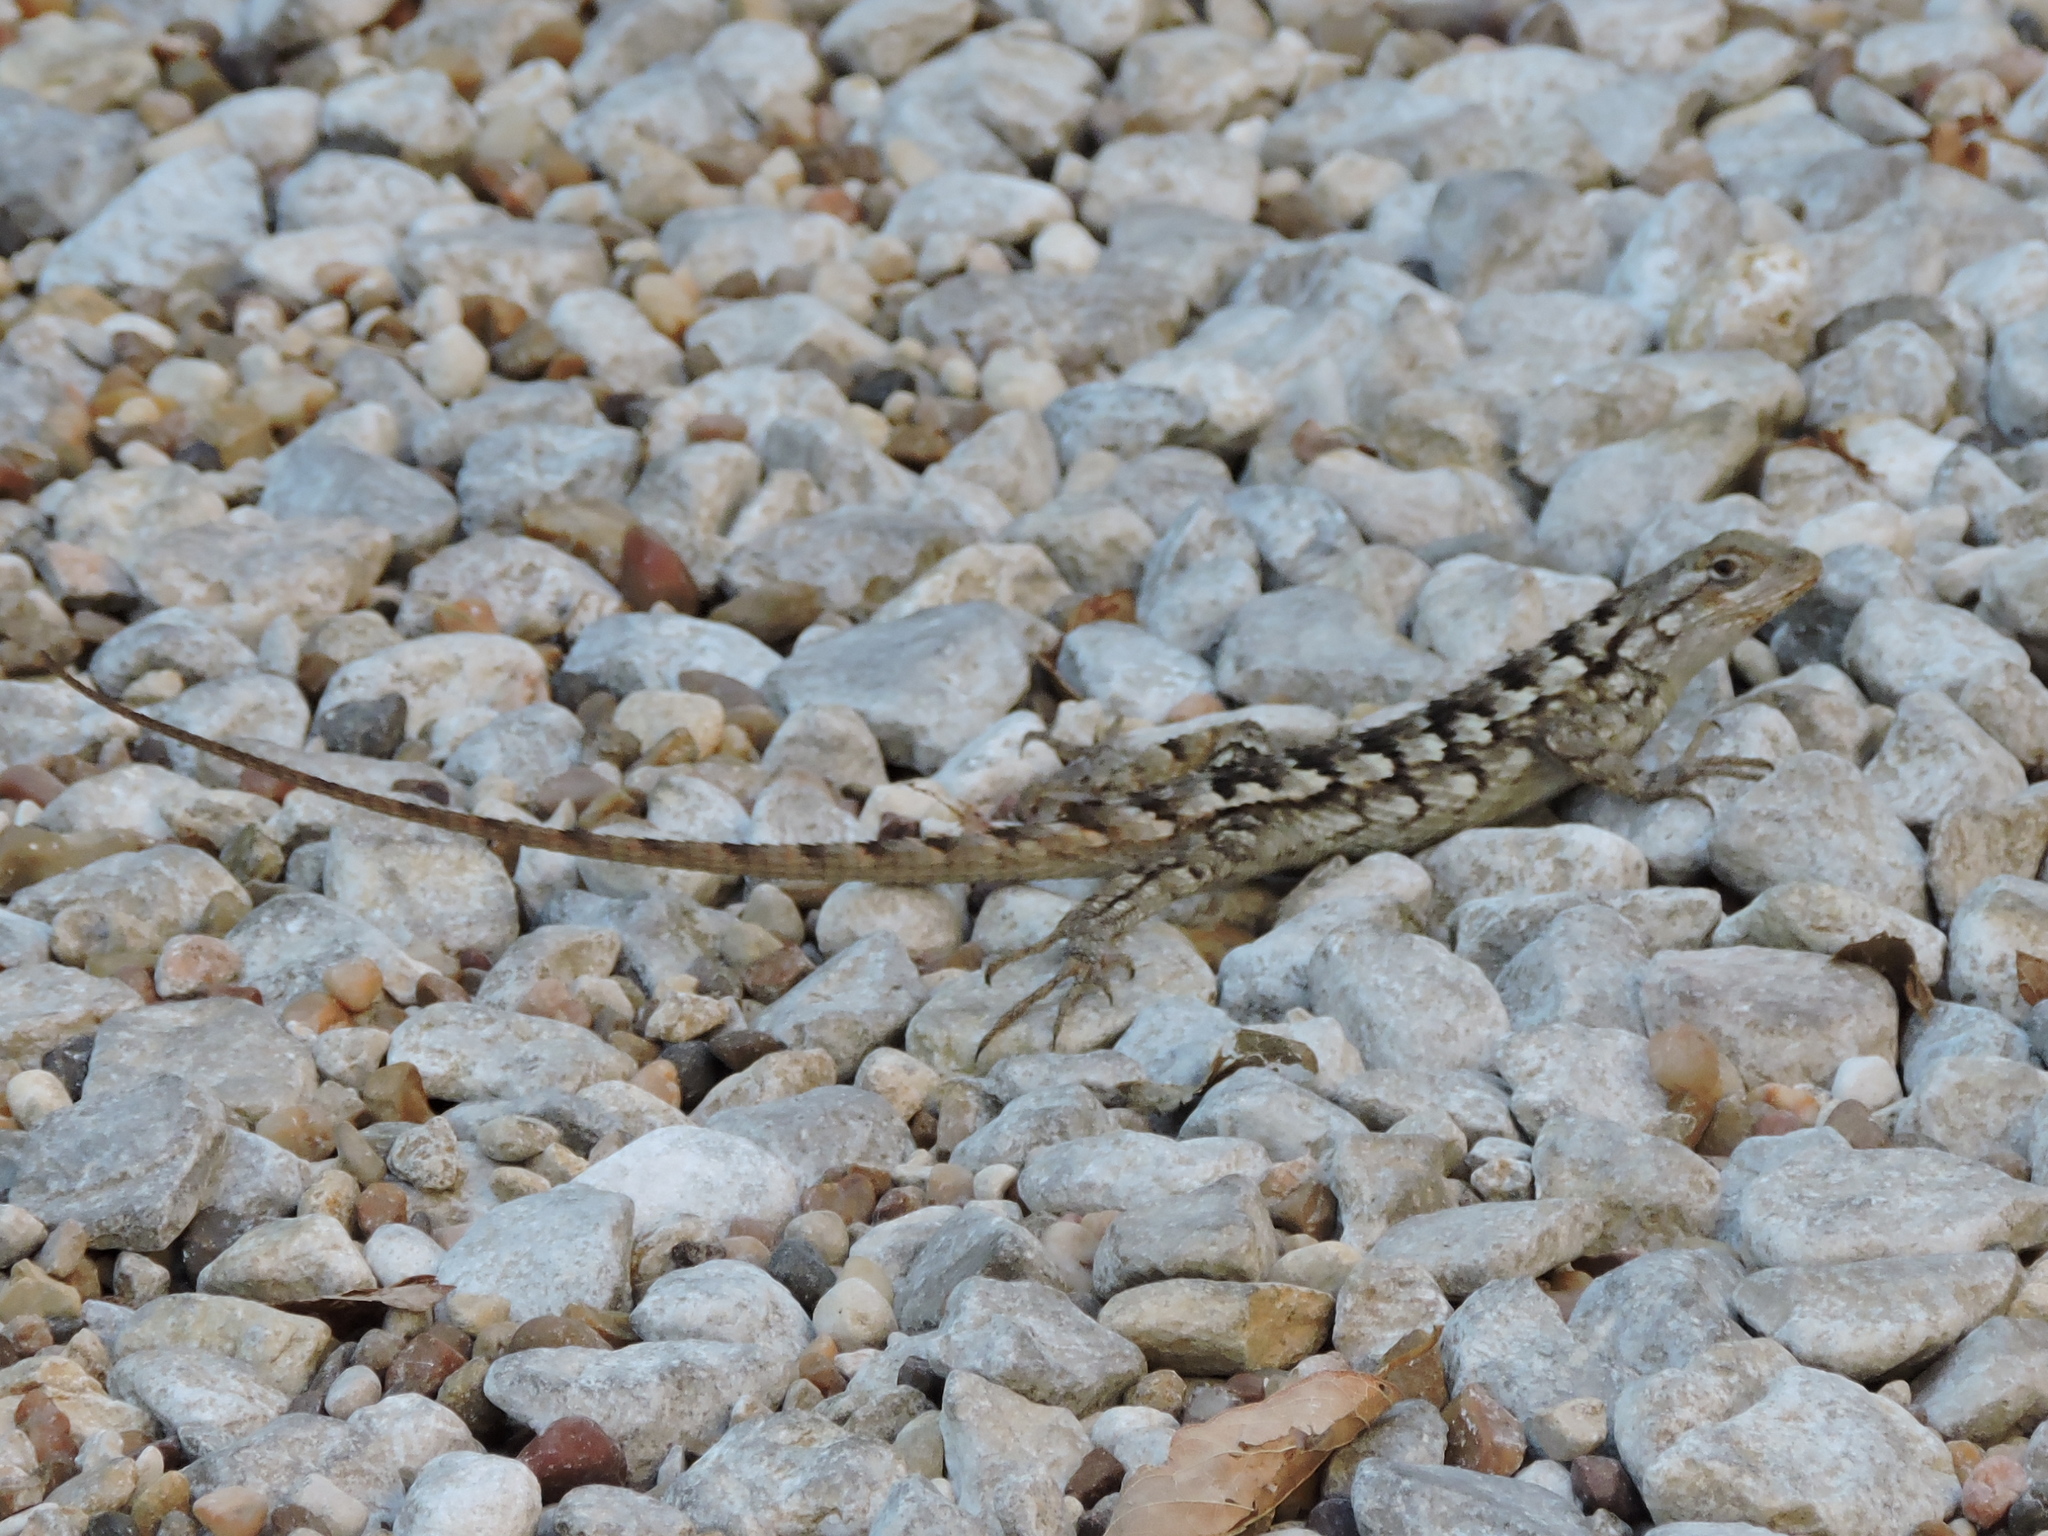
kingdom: Animalia
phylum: Chordata
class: Squamata
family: Phrynosomatidae
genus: Sceloporus
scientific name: Sceloporus olivaceus
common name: Texas spiny lizard
